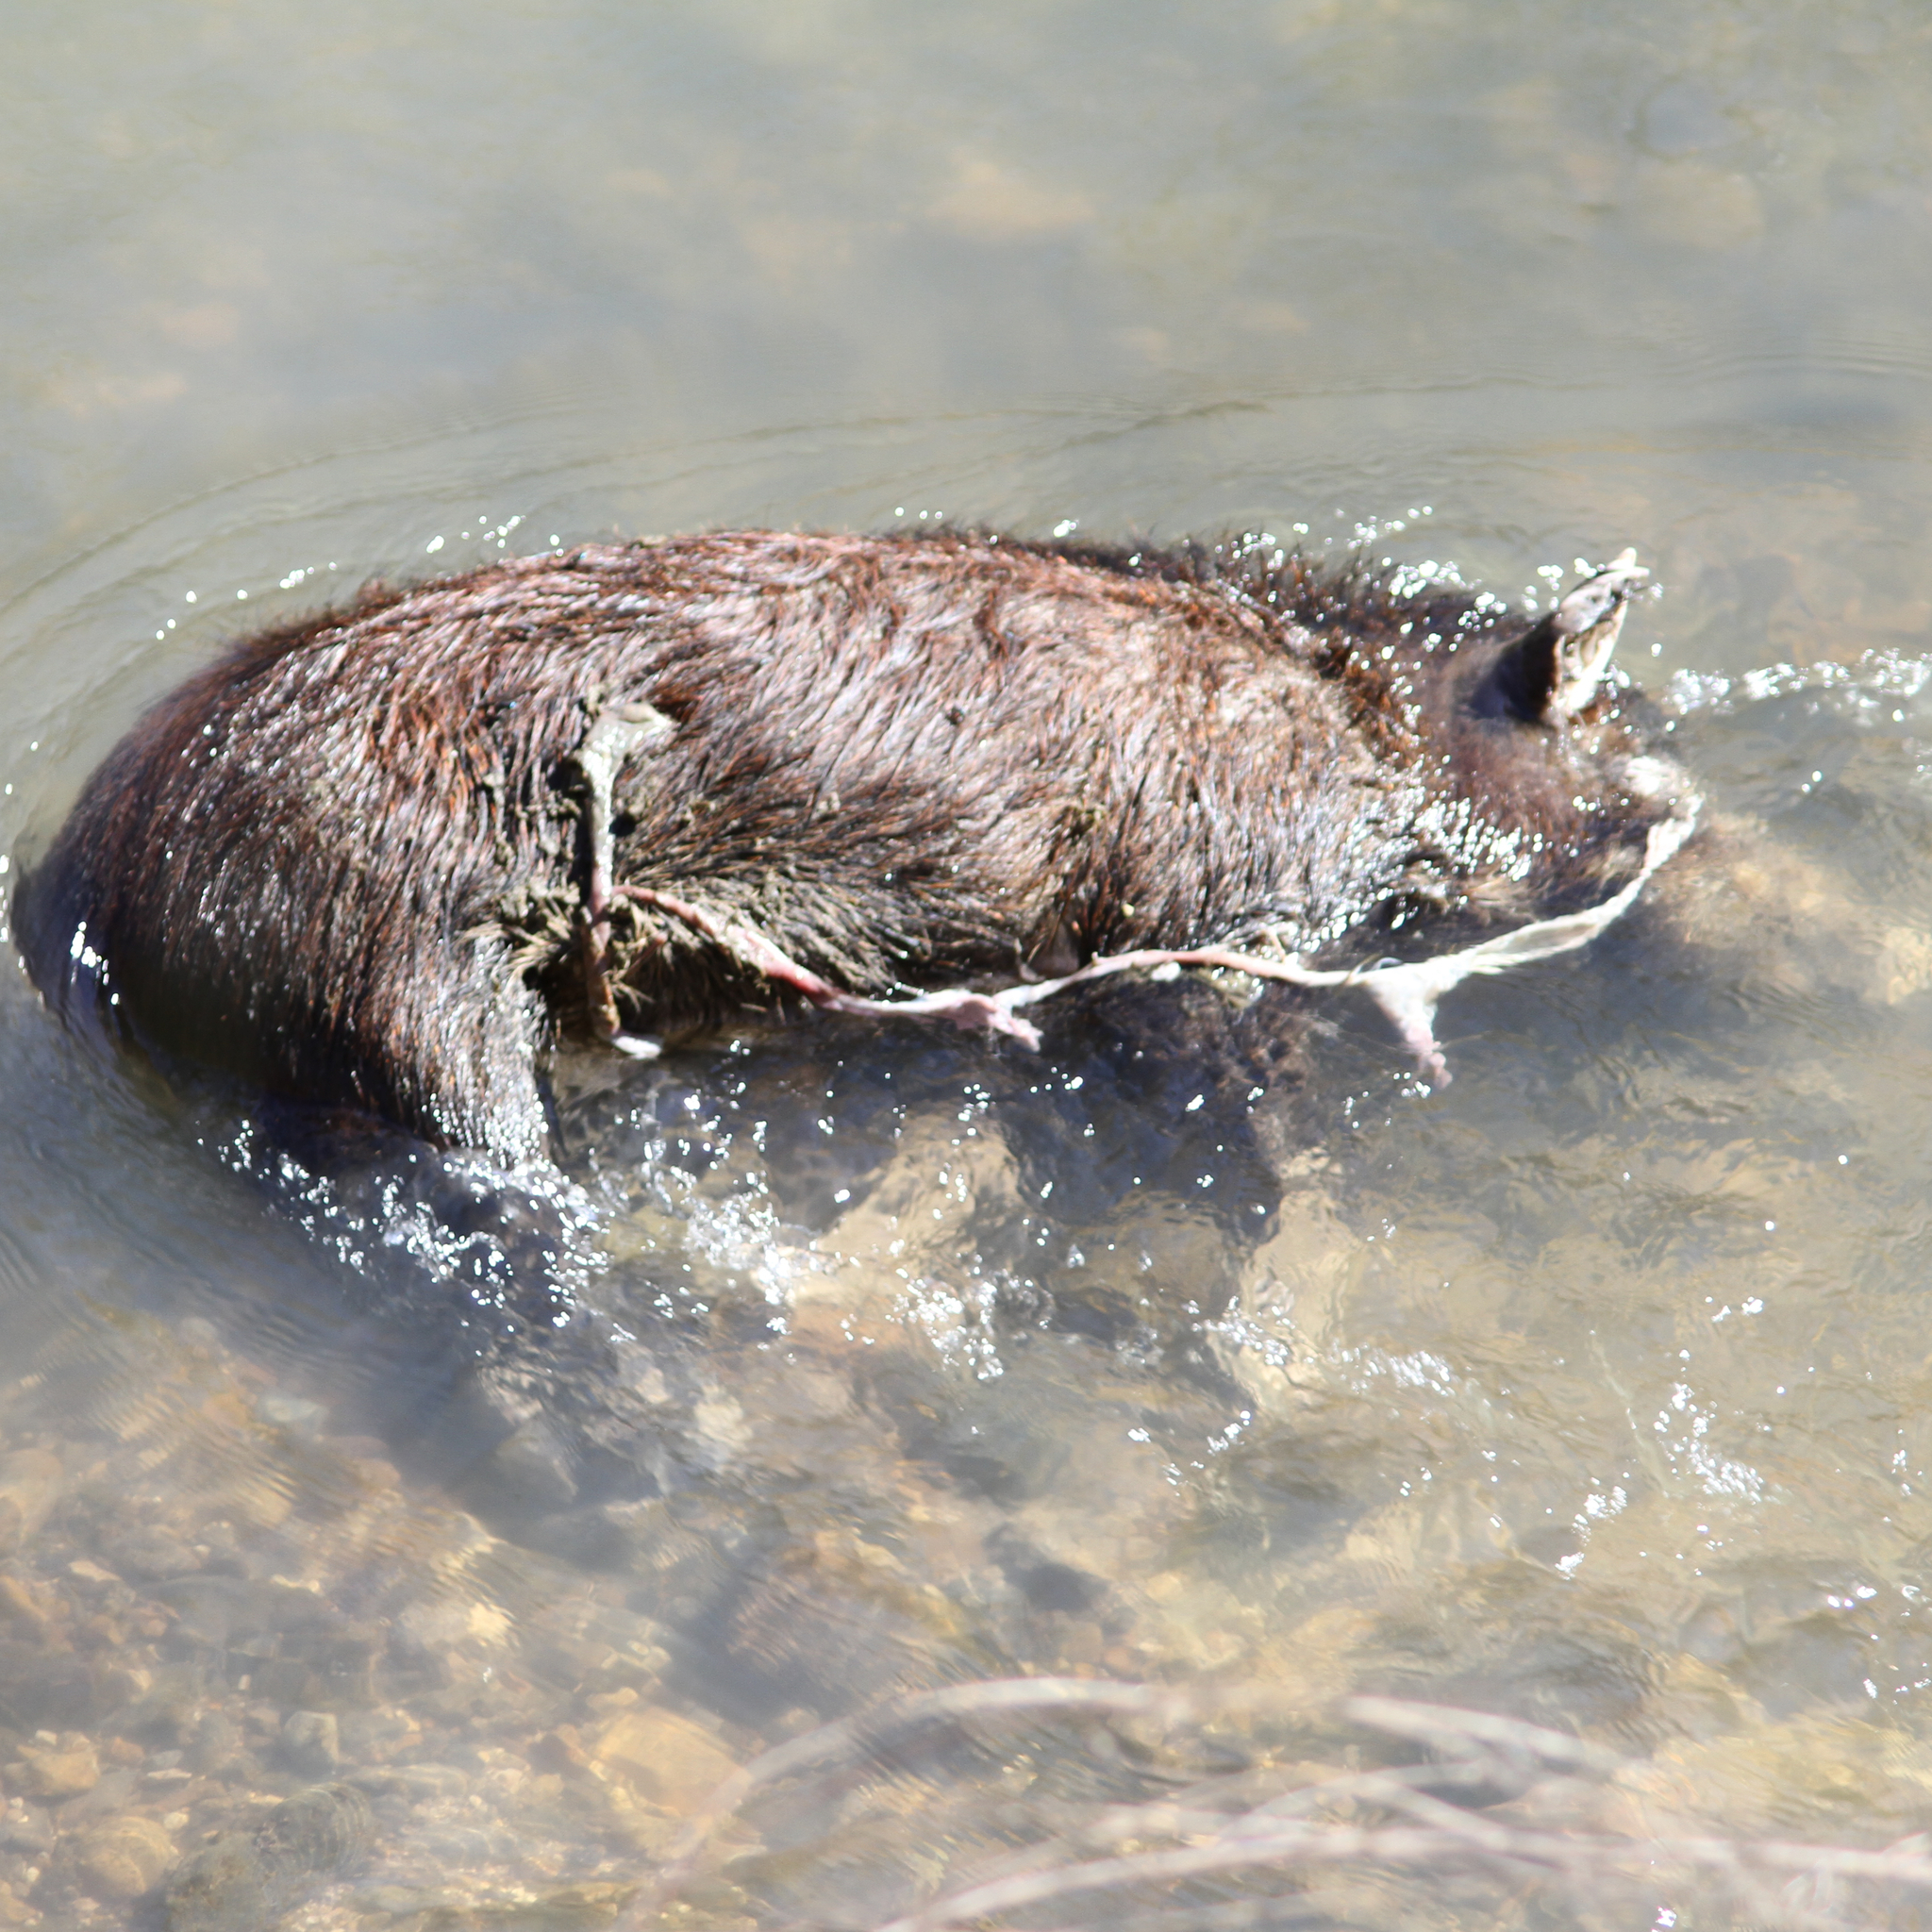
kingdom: Animalia
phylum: Chordata
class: Mammalia
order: Artiodactyla
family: Suidae
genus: Sus
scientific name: Sus scrofa
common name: Wild boar
